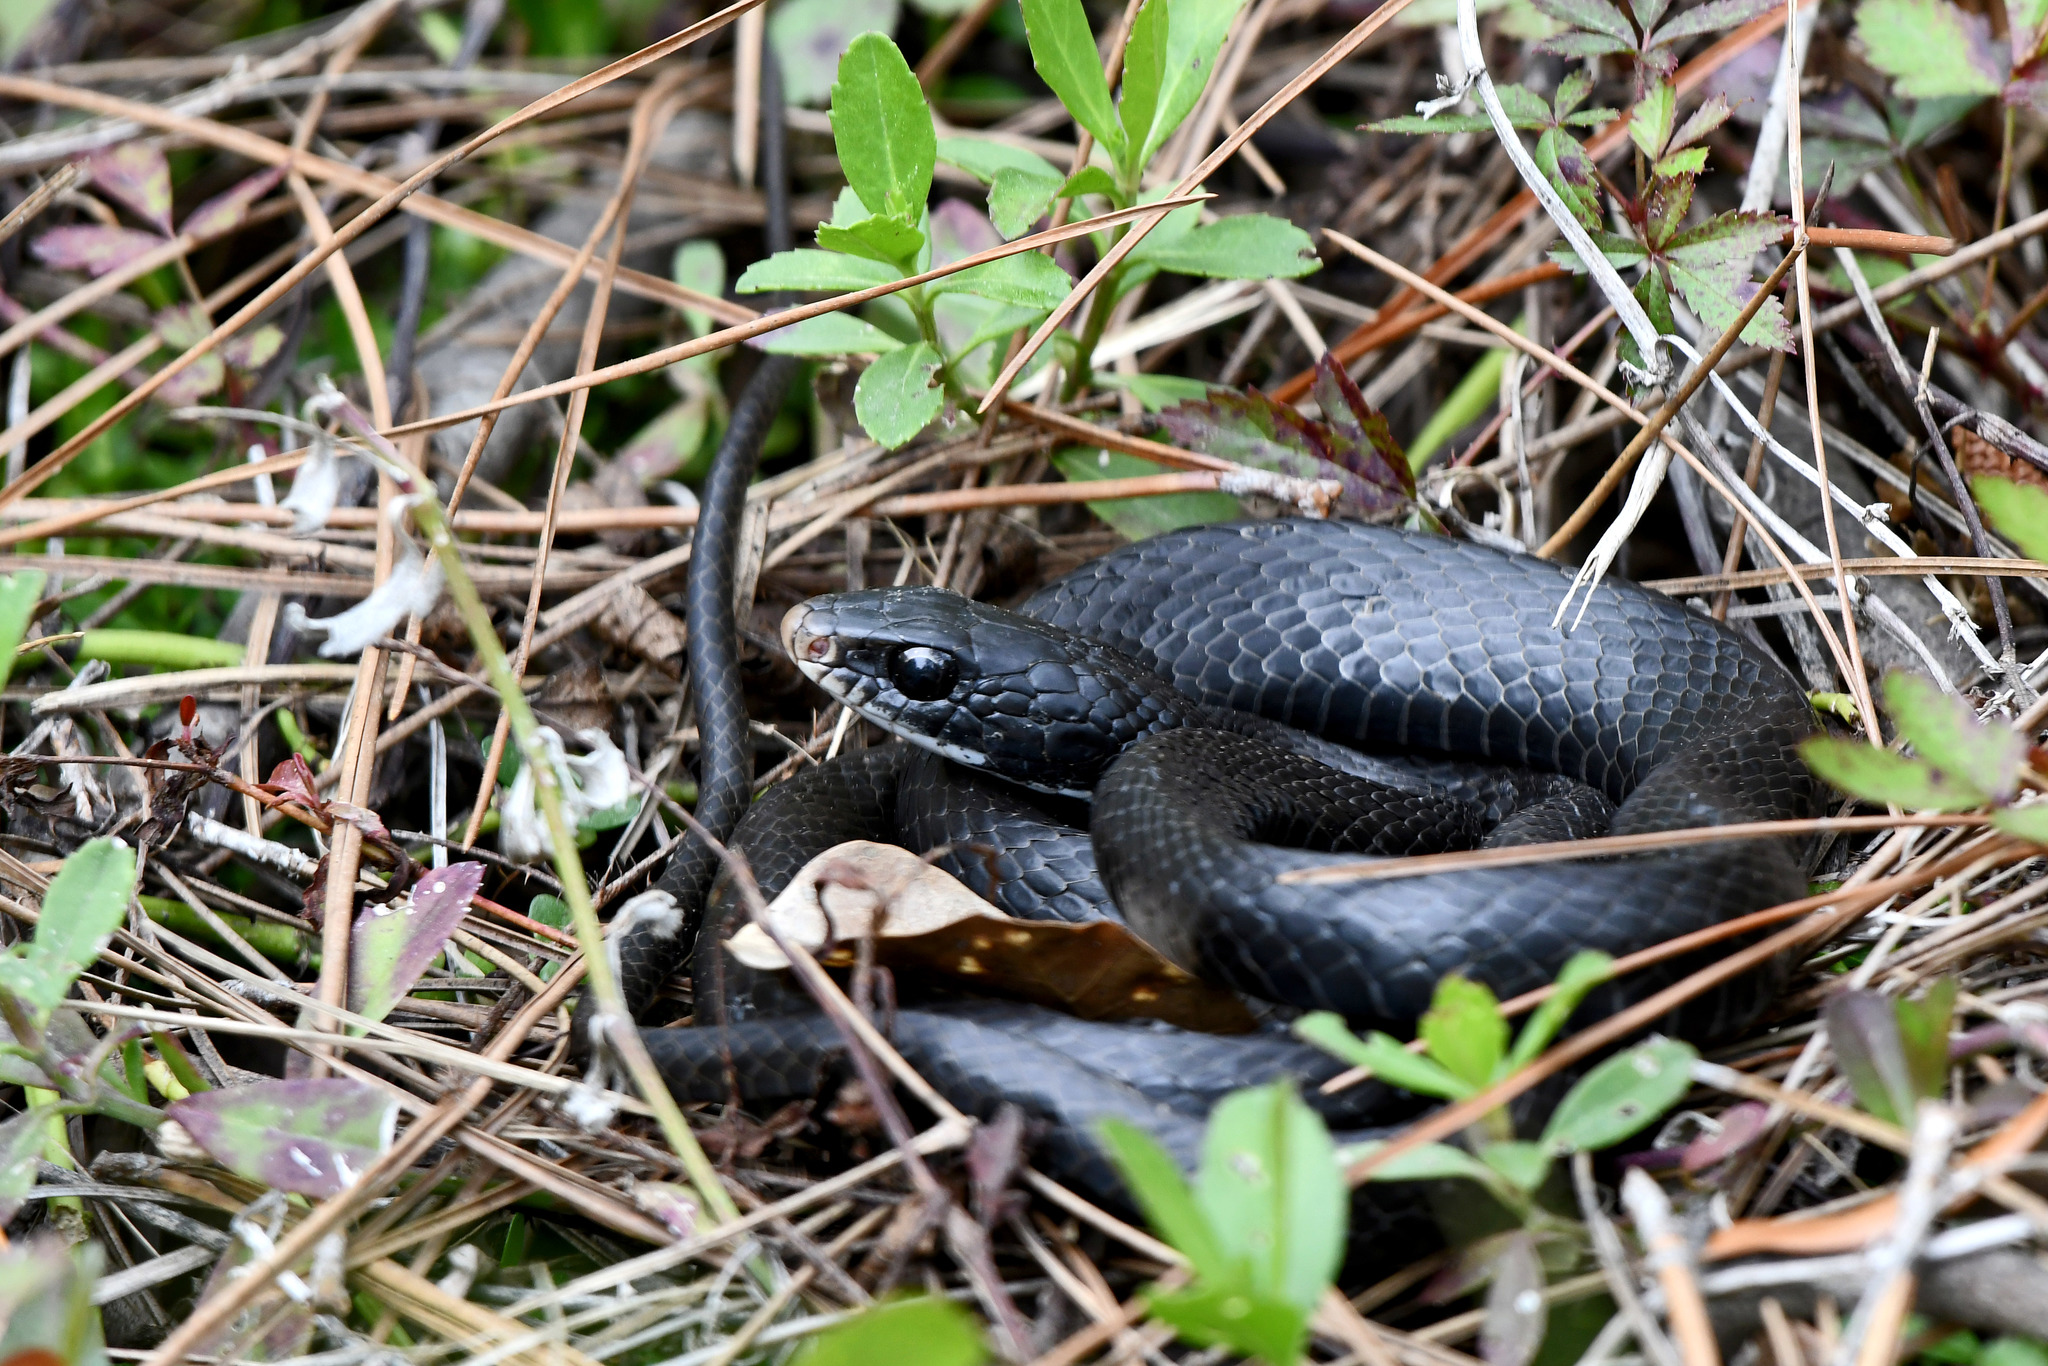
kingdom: Animalia
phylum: Chordata
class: Squamata
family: Colubridae
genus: Coluber
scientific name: Coluber constrictor
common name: Eastern racer
